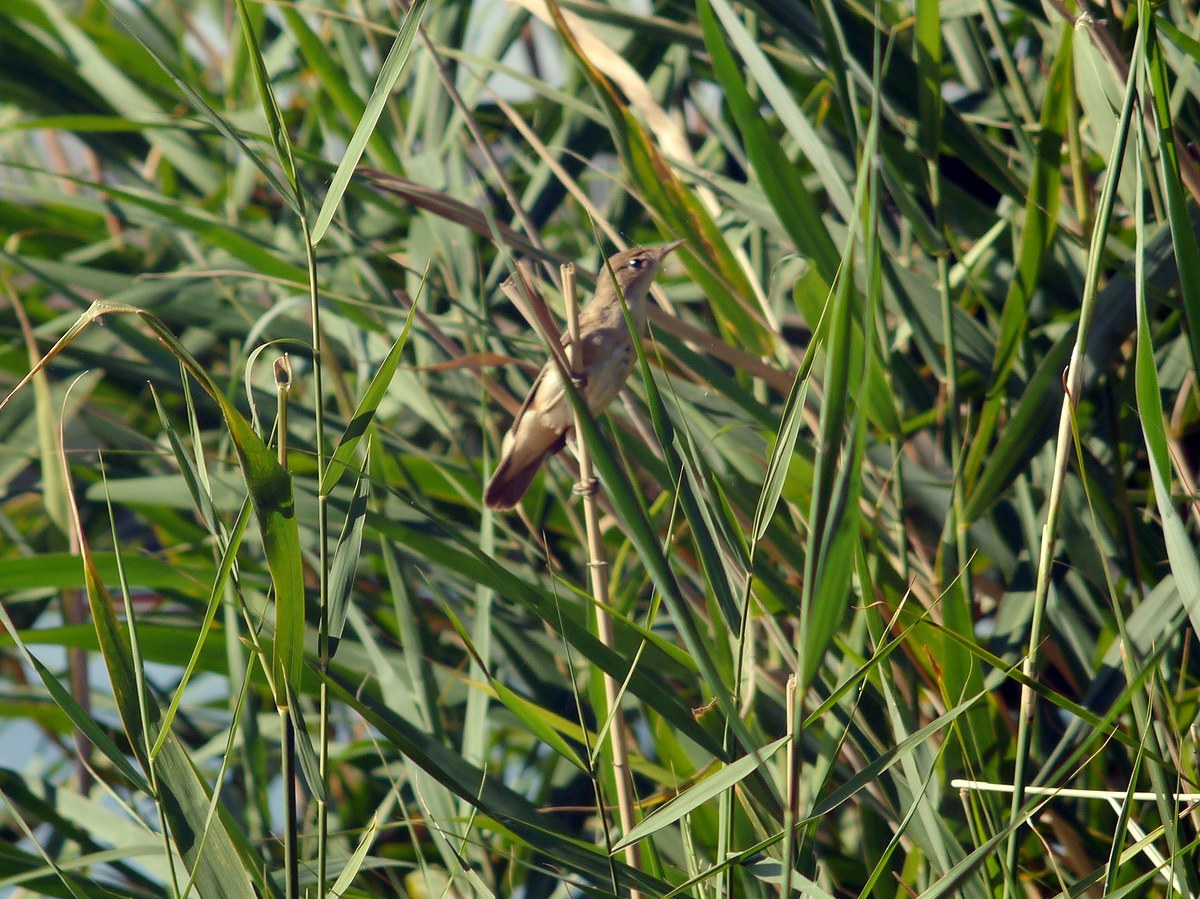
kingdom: Animalia
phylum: Chordata
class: Aves
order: Passeriformes
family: Remizidae
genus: Remiz
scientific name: Remiz pendulinus
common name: Eurasian penduline tit
